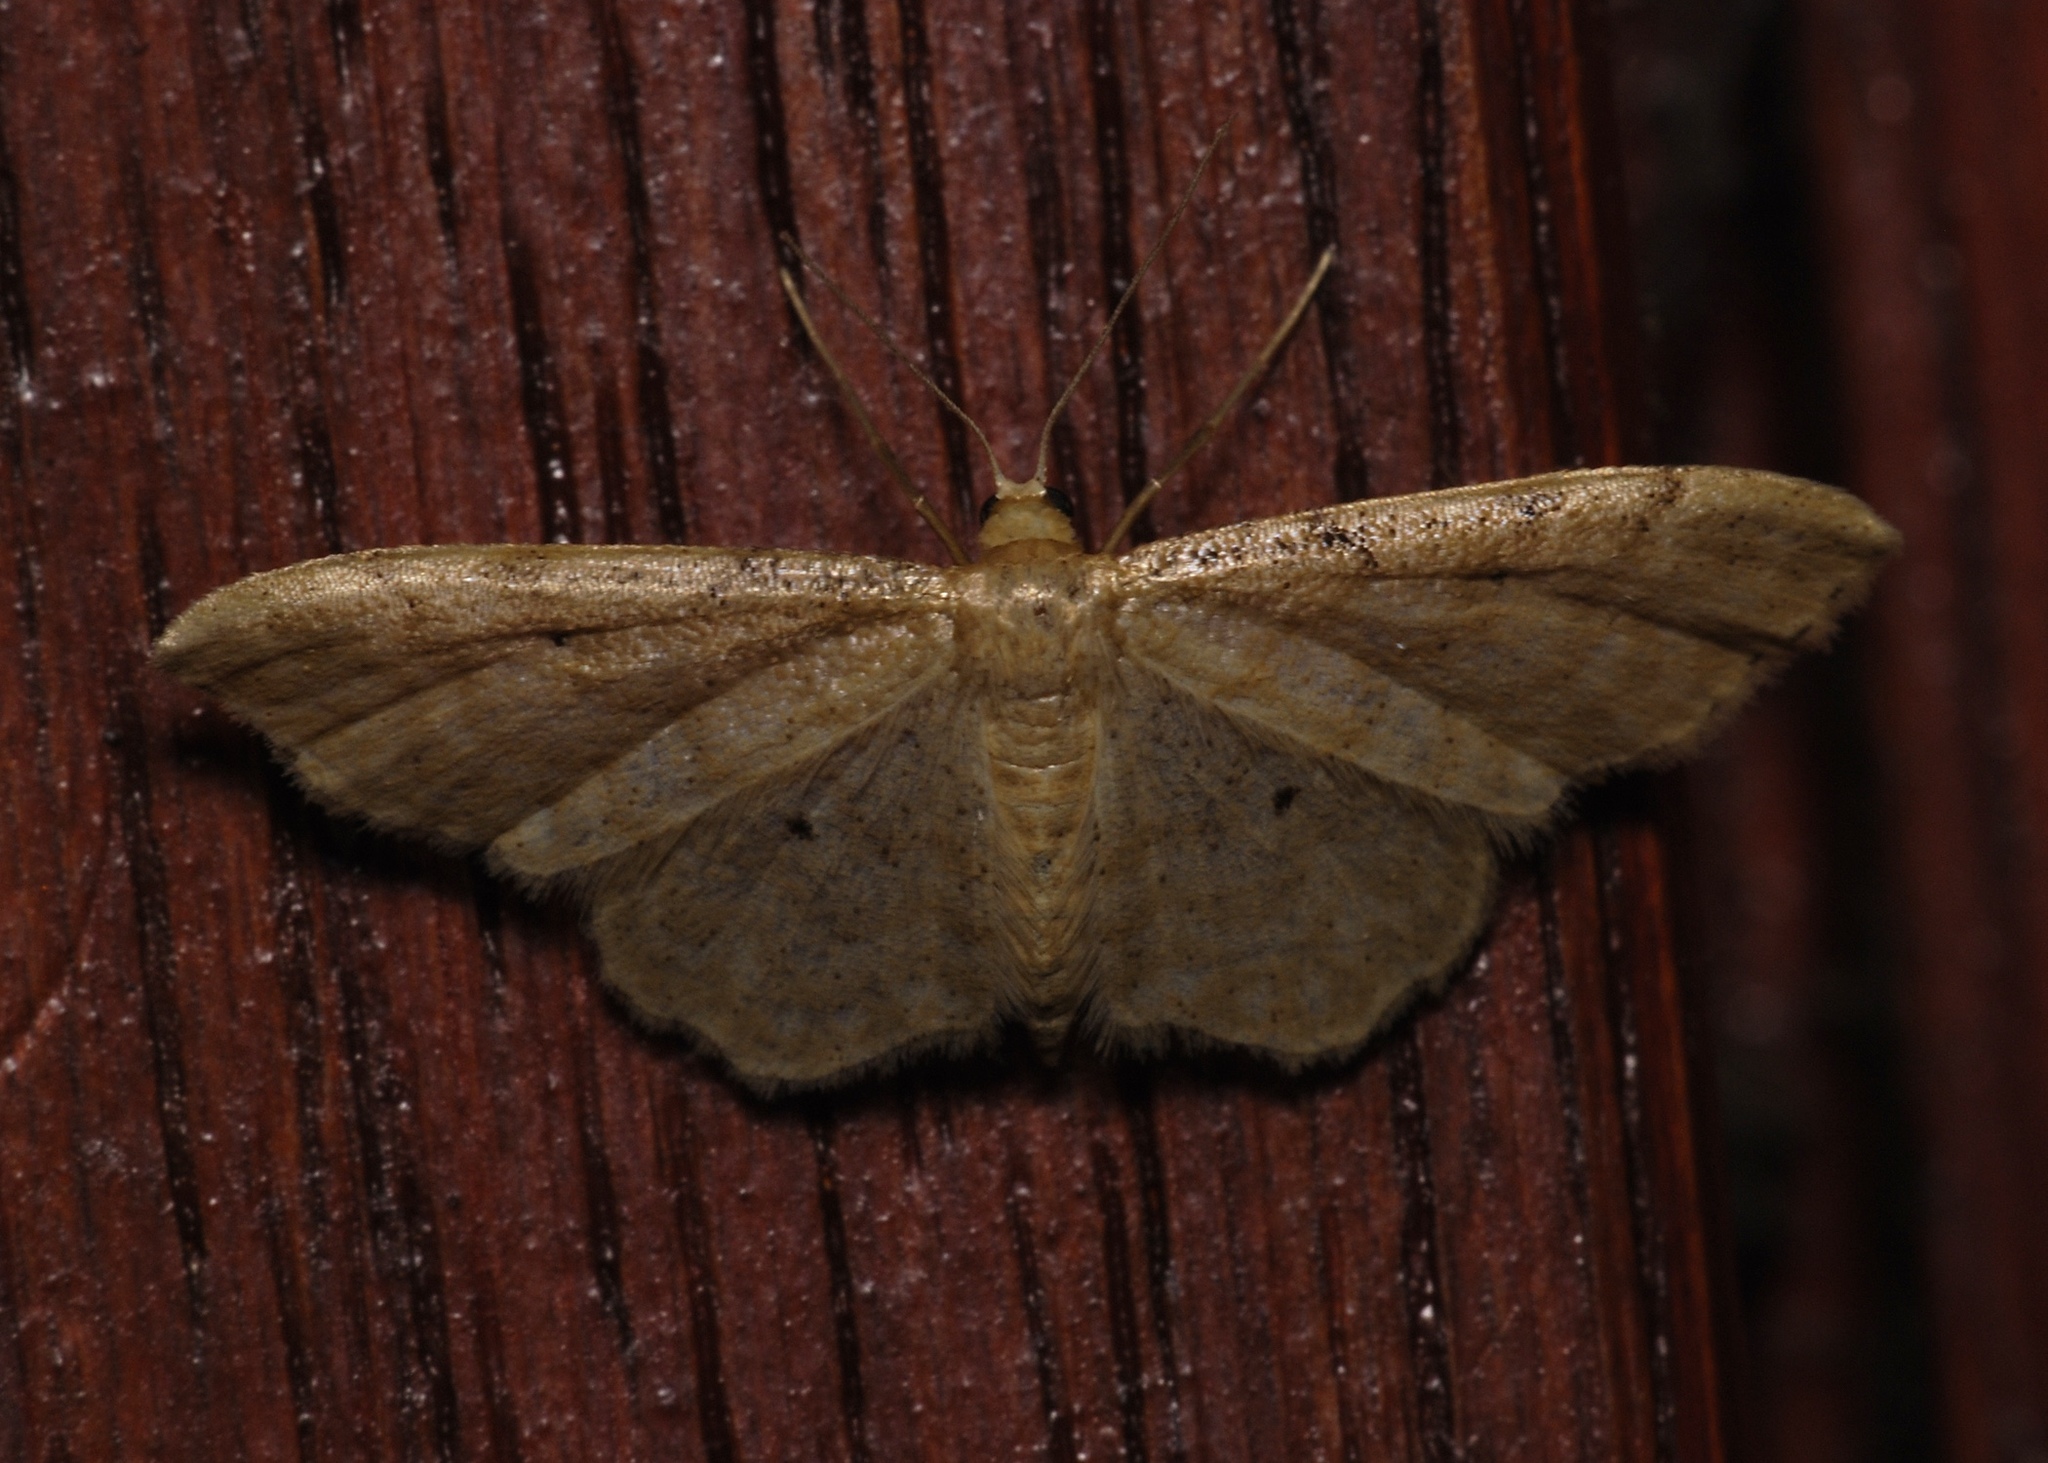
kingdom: Animalia
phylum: Arthropoda
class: Insecta
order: Lepidoptera
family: Geometridae
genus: Idaea
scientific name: Idaea fuscovenosa
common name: Dwarf cream wave
